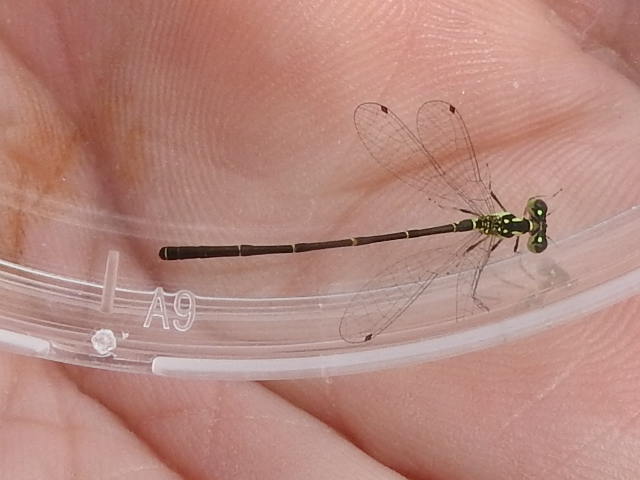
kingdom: Animalia
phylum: Arthropoda
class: Insecta
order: Odonata
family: Coenagrionidae
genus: Ischnura
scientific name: Ischnura posita
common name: Fragile forktail
